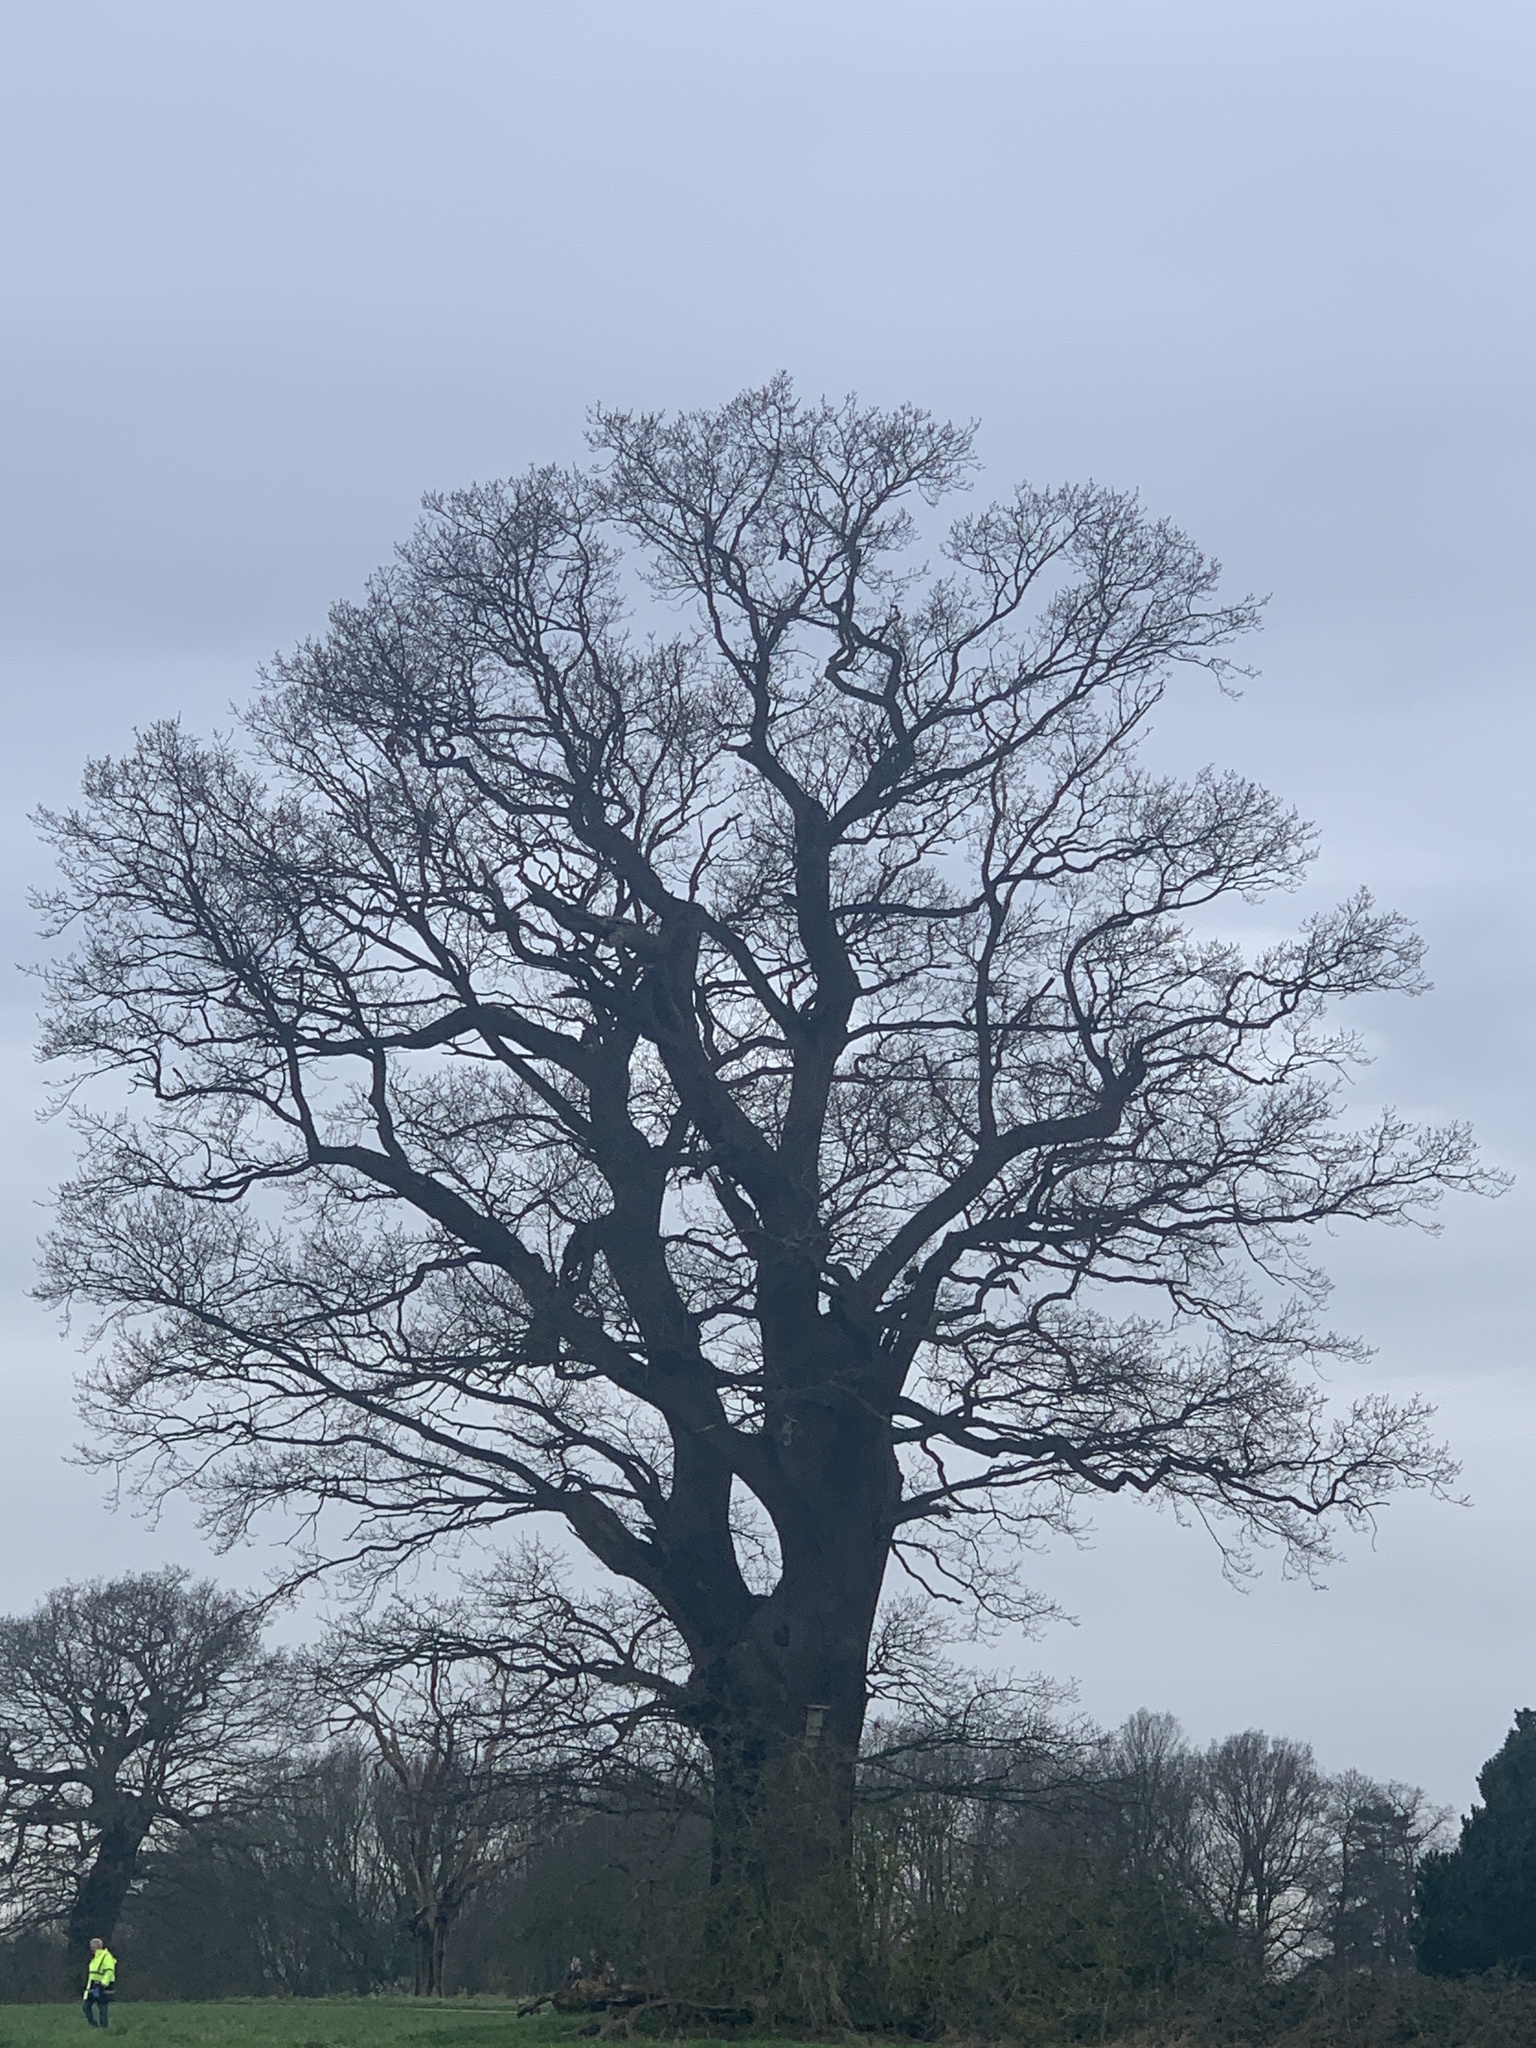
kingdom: Plantae
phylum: Tracheophyta
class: Magnoliopsida
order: Fagales
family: Fagaceae
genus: Quercus
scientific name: Quercus robur
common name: Pedunculate oak
